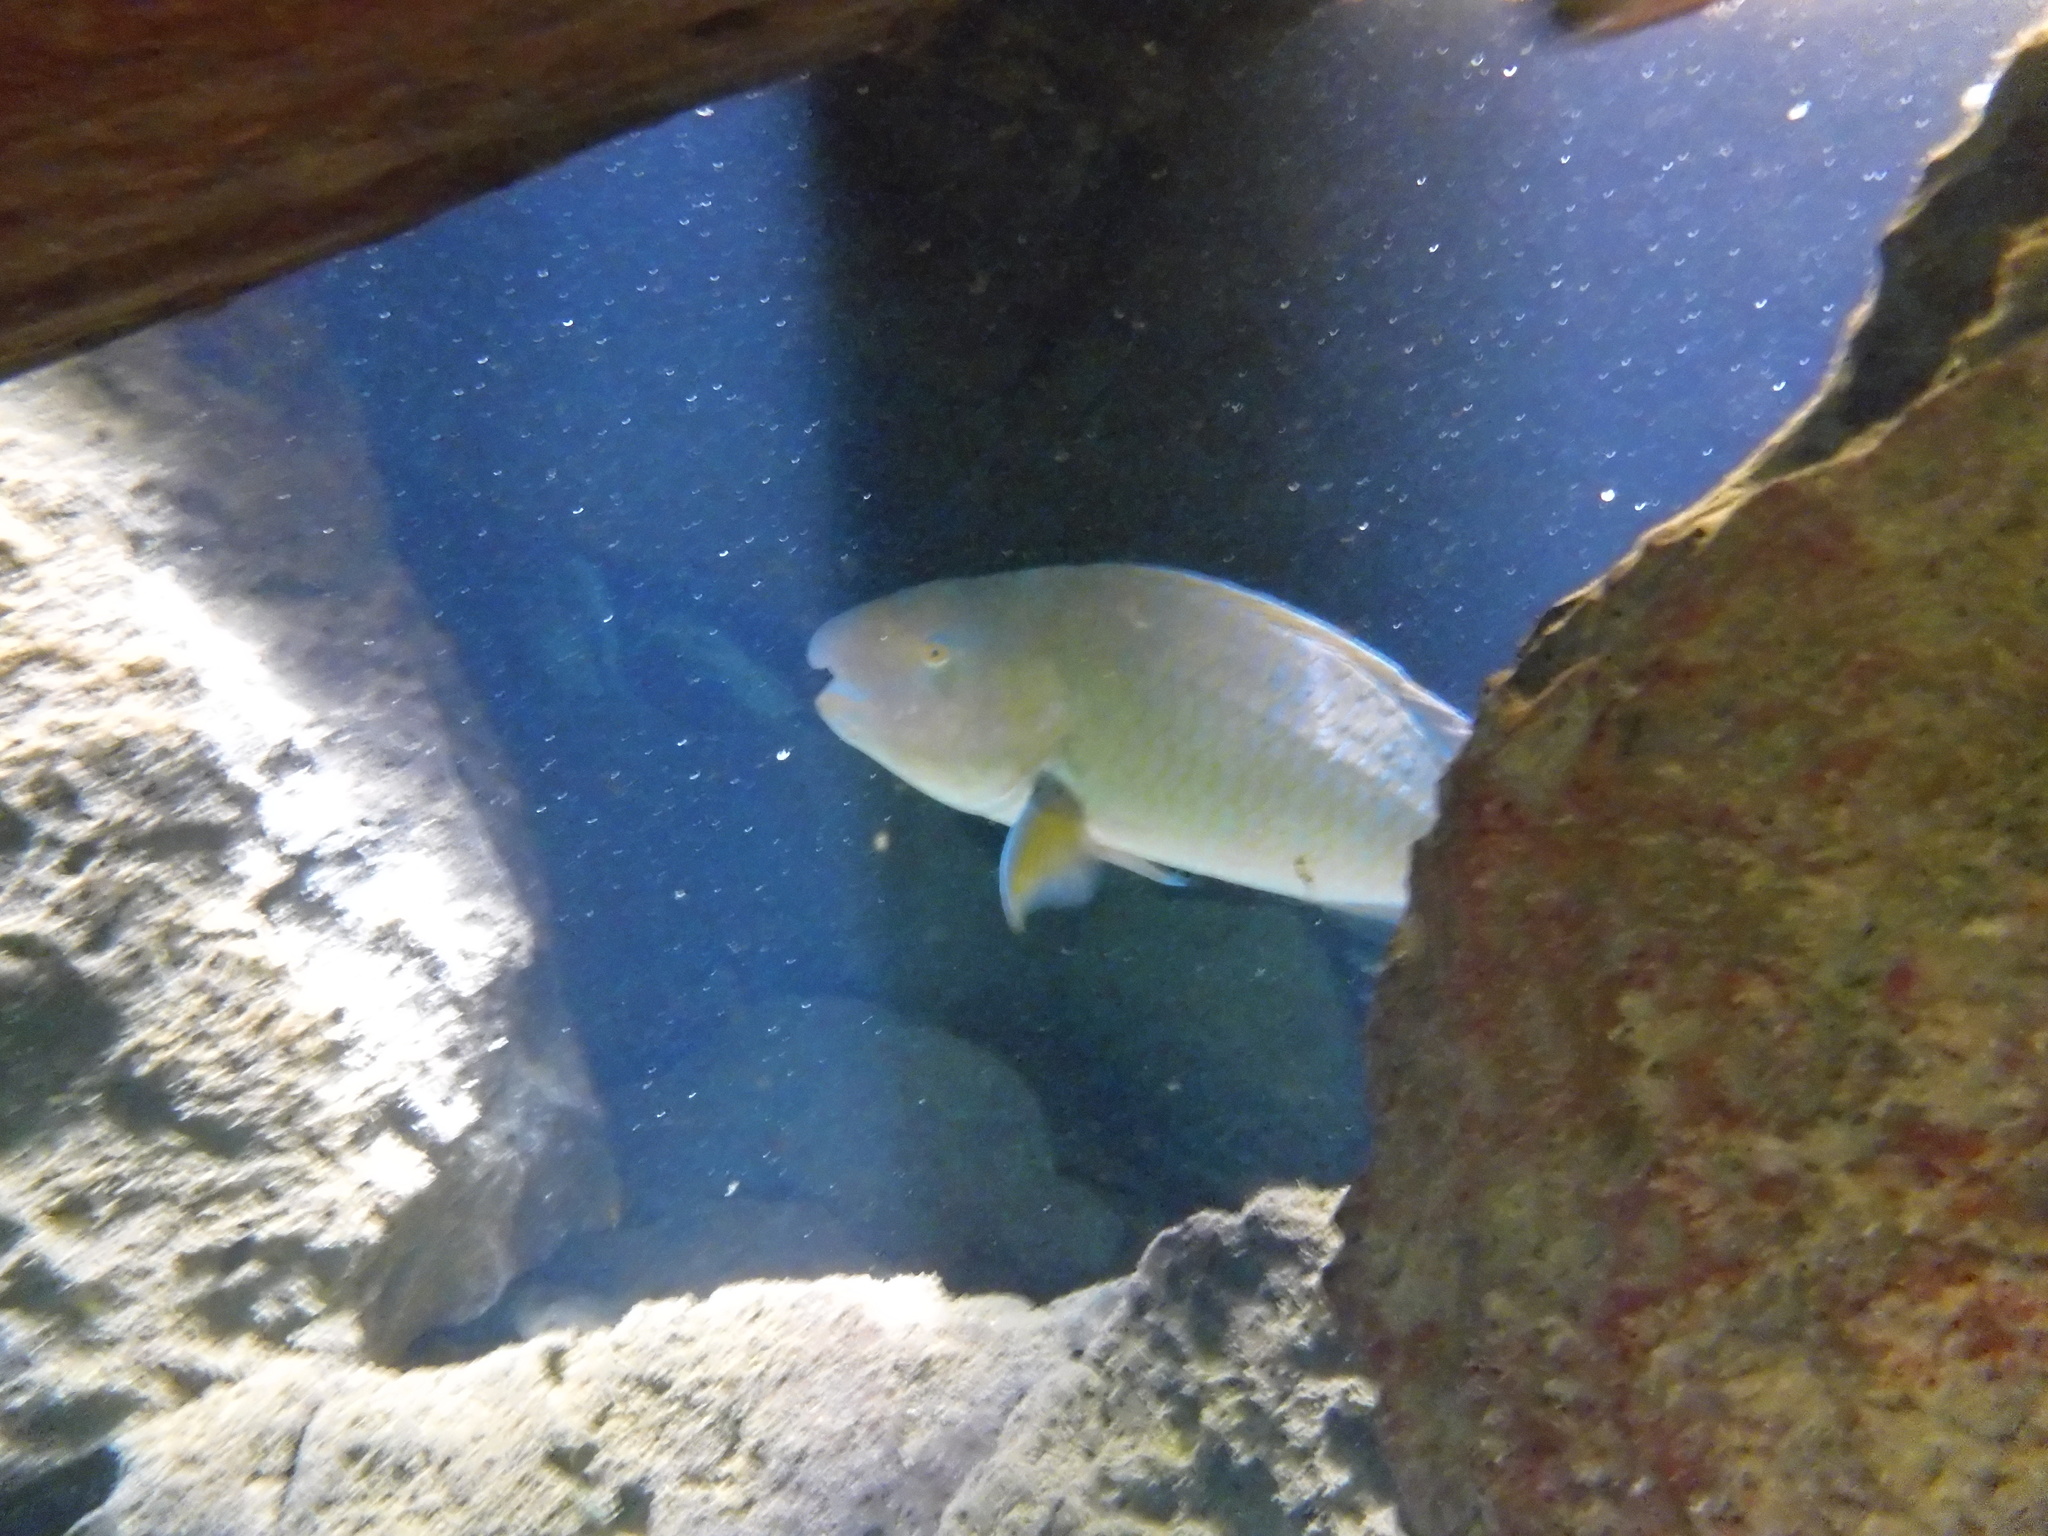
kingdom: Animalia
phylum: Chordata
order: Perciformes
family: Scaridae
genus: Scarus
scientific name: Scarus ghobban
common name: Blue-barred parrotfish
